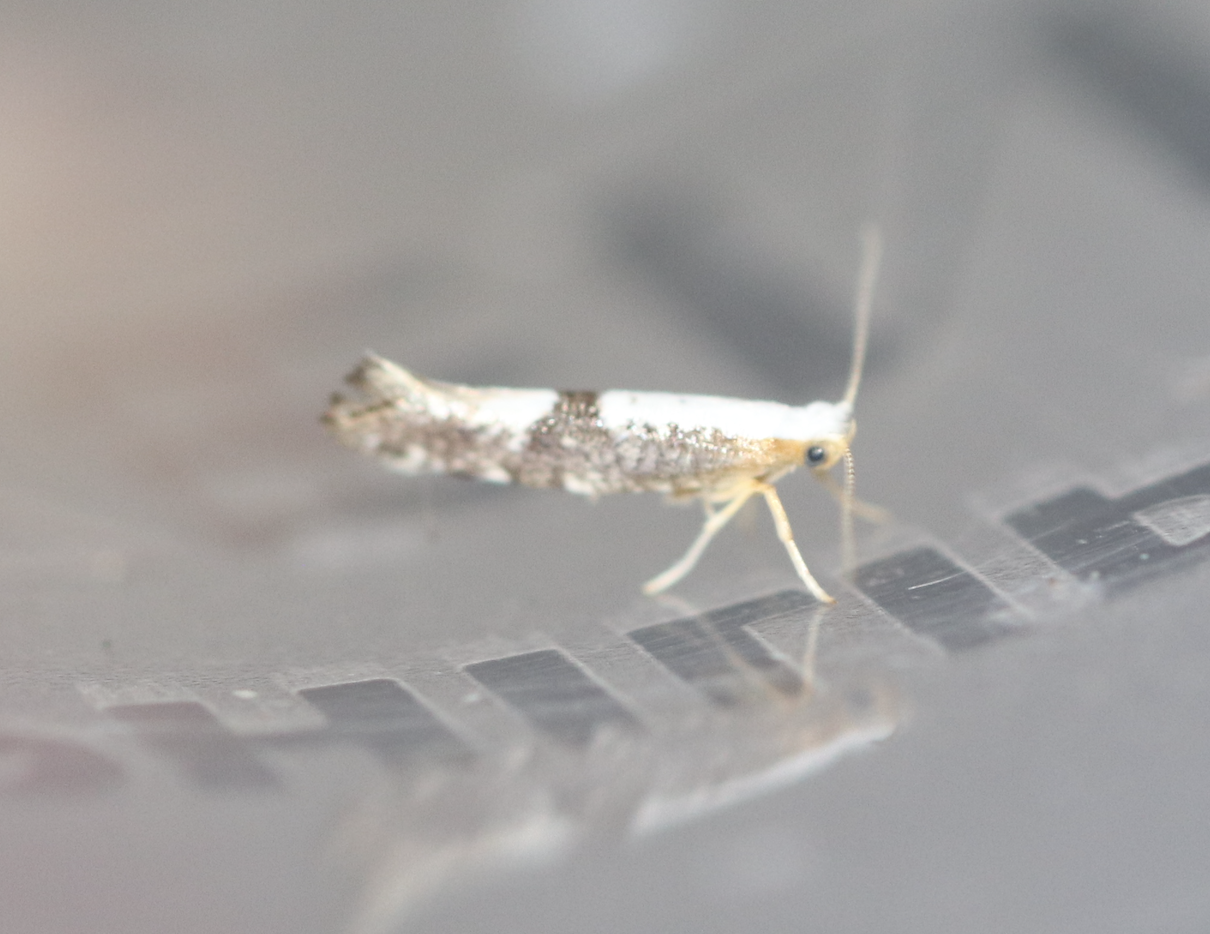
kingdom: Animalia
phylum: Arthropoda
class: Insecta
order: Lepidoptera
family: Argyresthiidae
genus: Argyresthia
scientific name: Argyresthia spinosella
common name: Blackthorn argent
